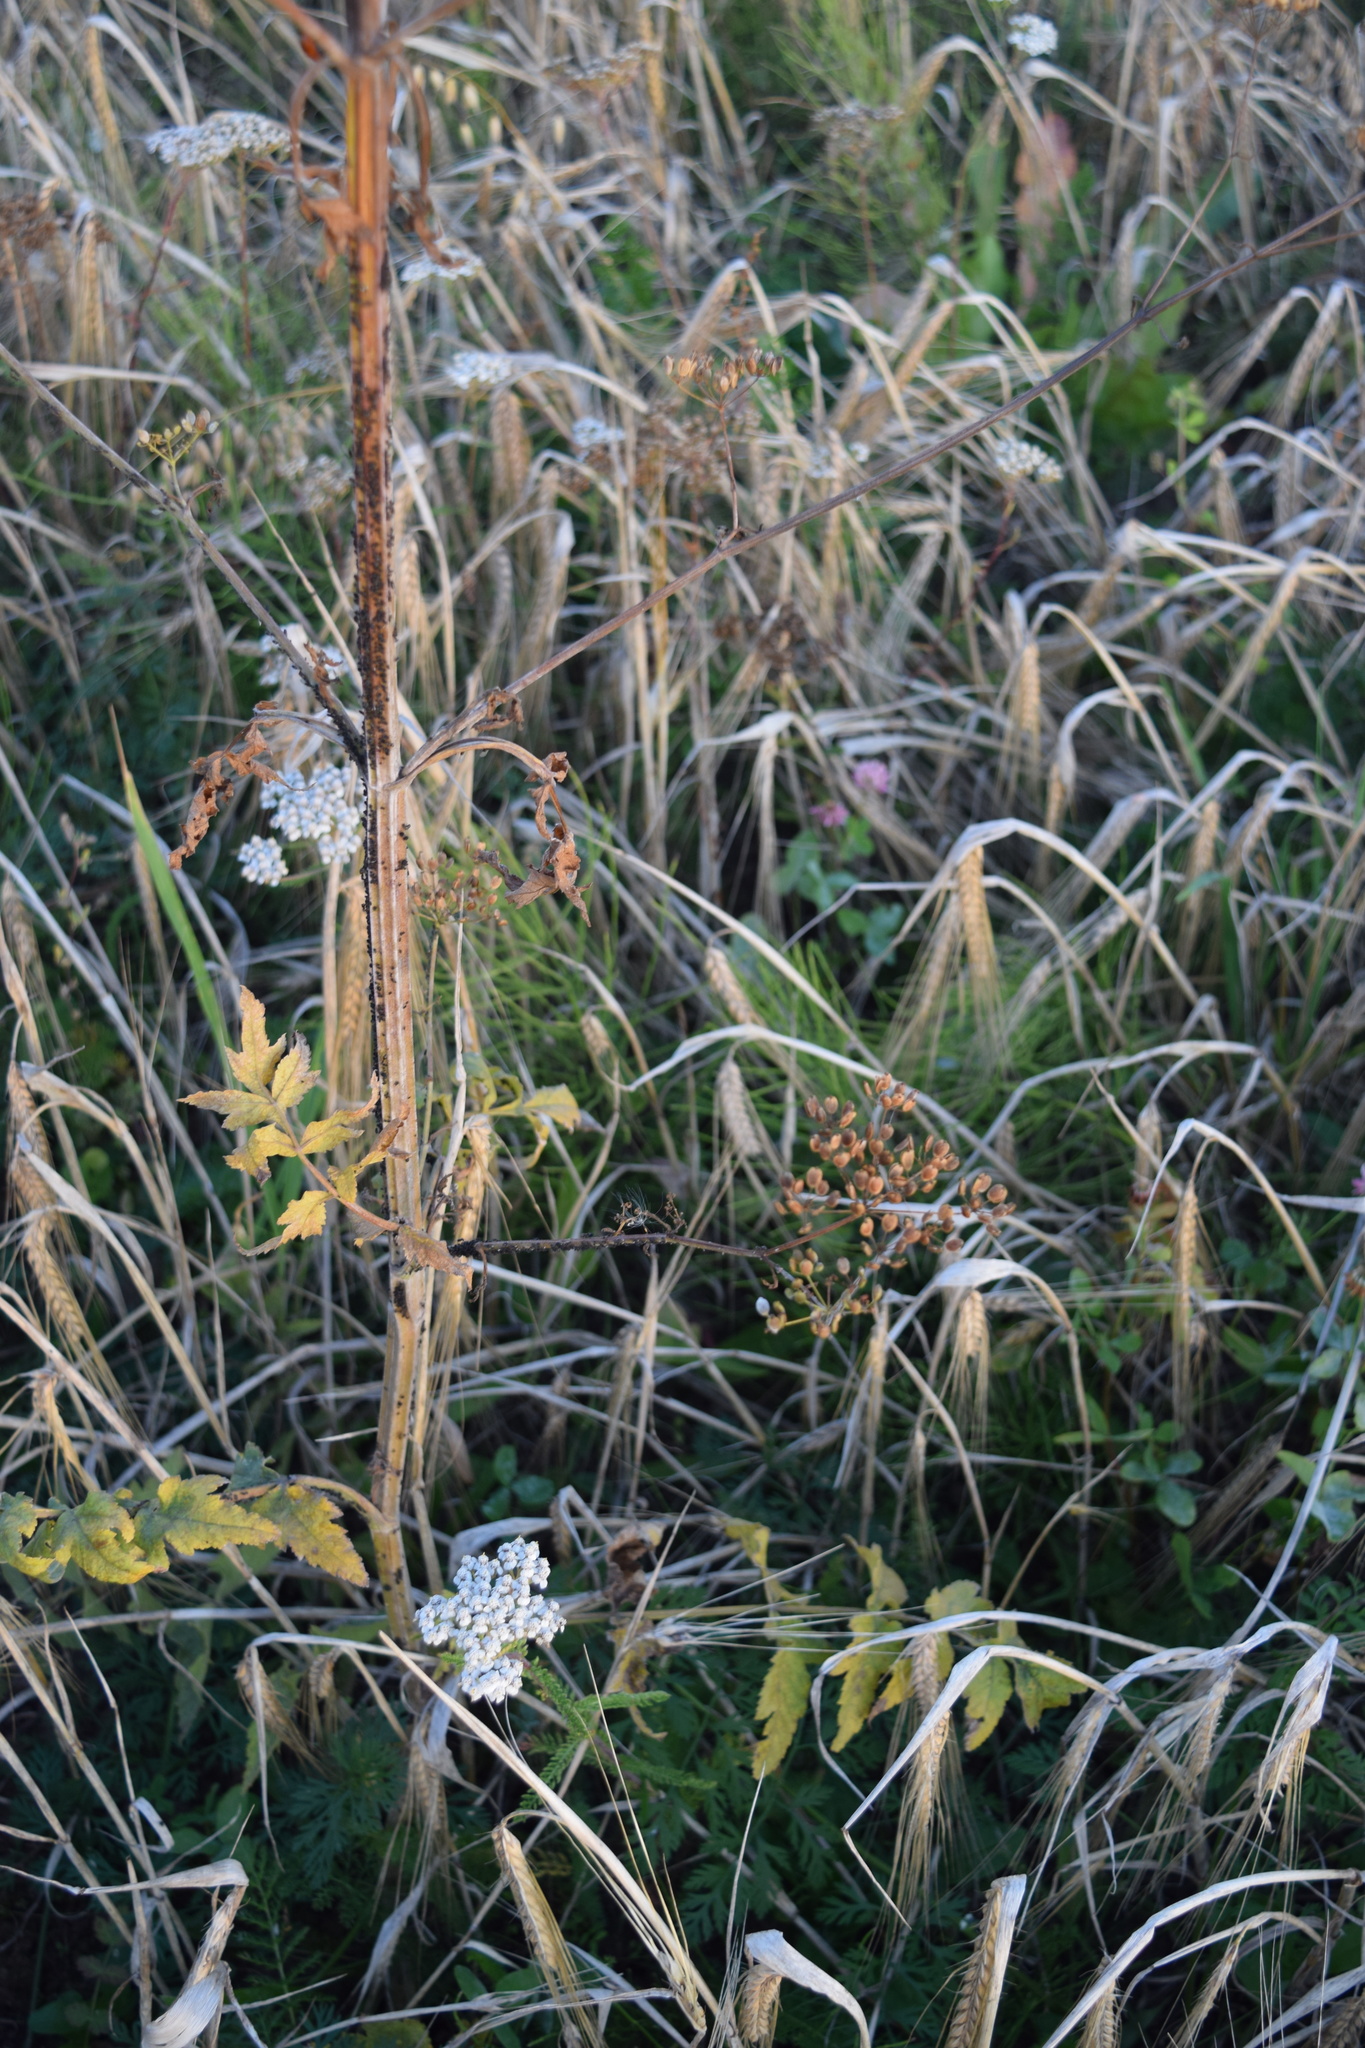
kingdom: Plantae
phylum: Tracheophyta
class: Magnoliopsida
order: Apiales
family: Apiaceae
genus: Pastinaca
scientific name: Pastinaca sativa
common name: Wild parsnip
